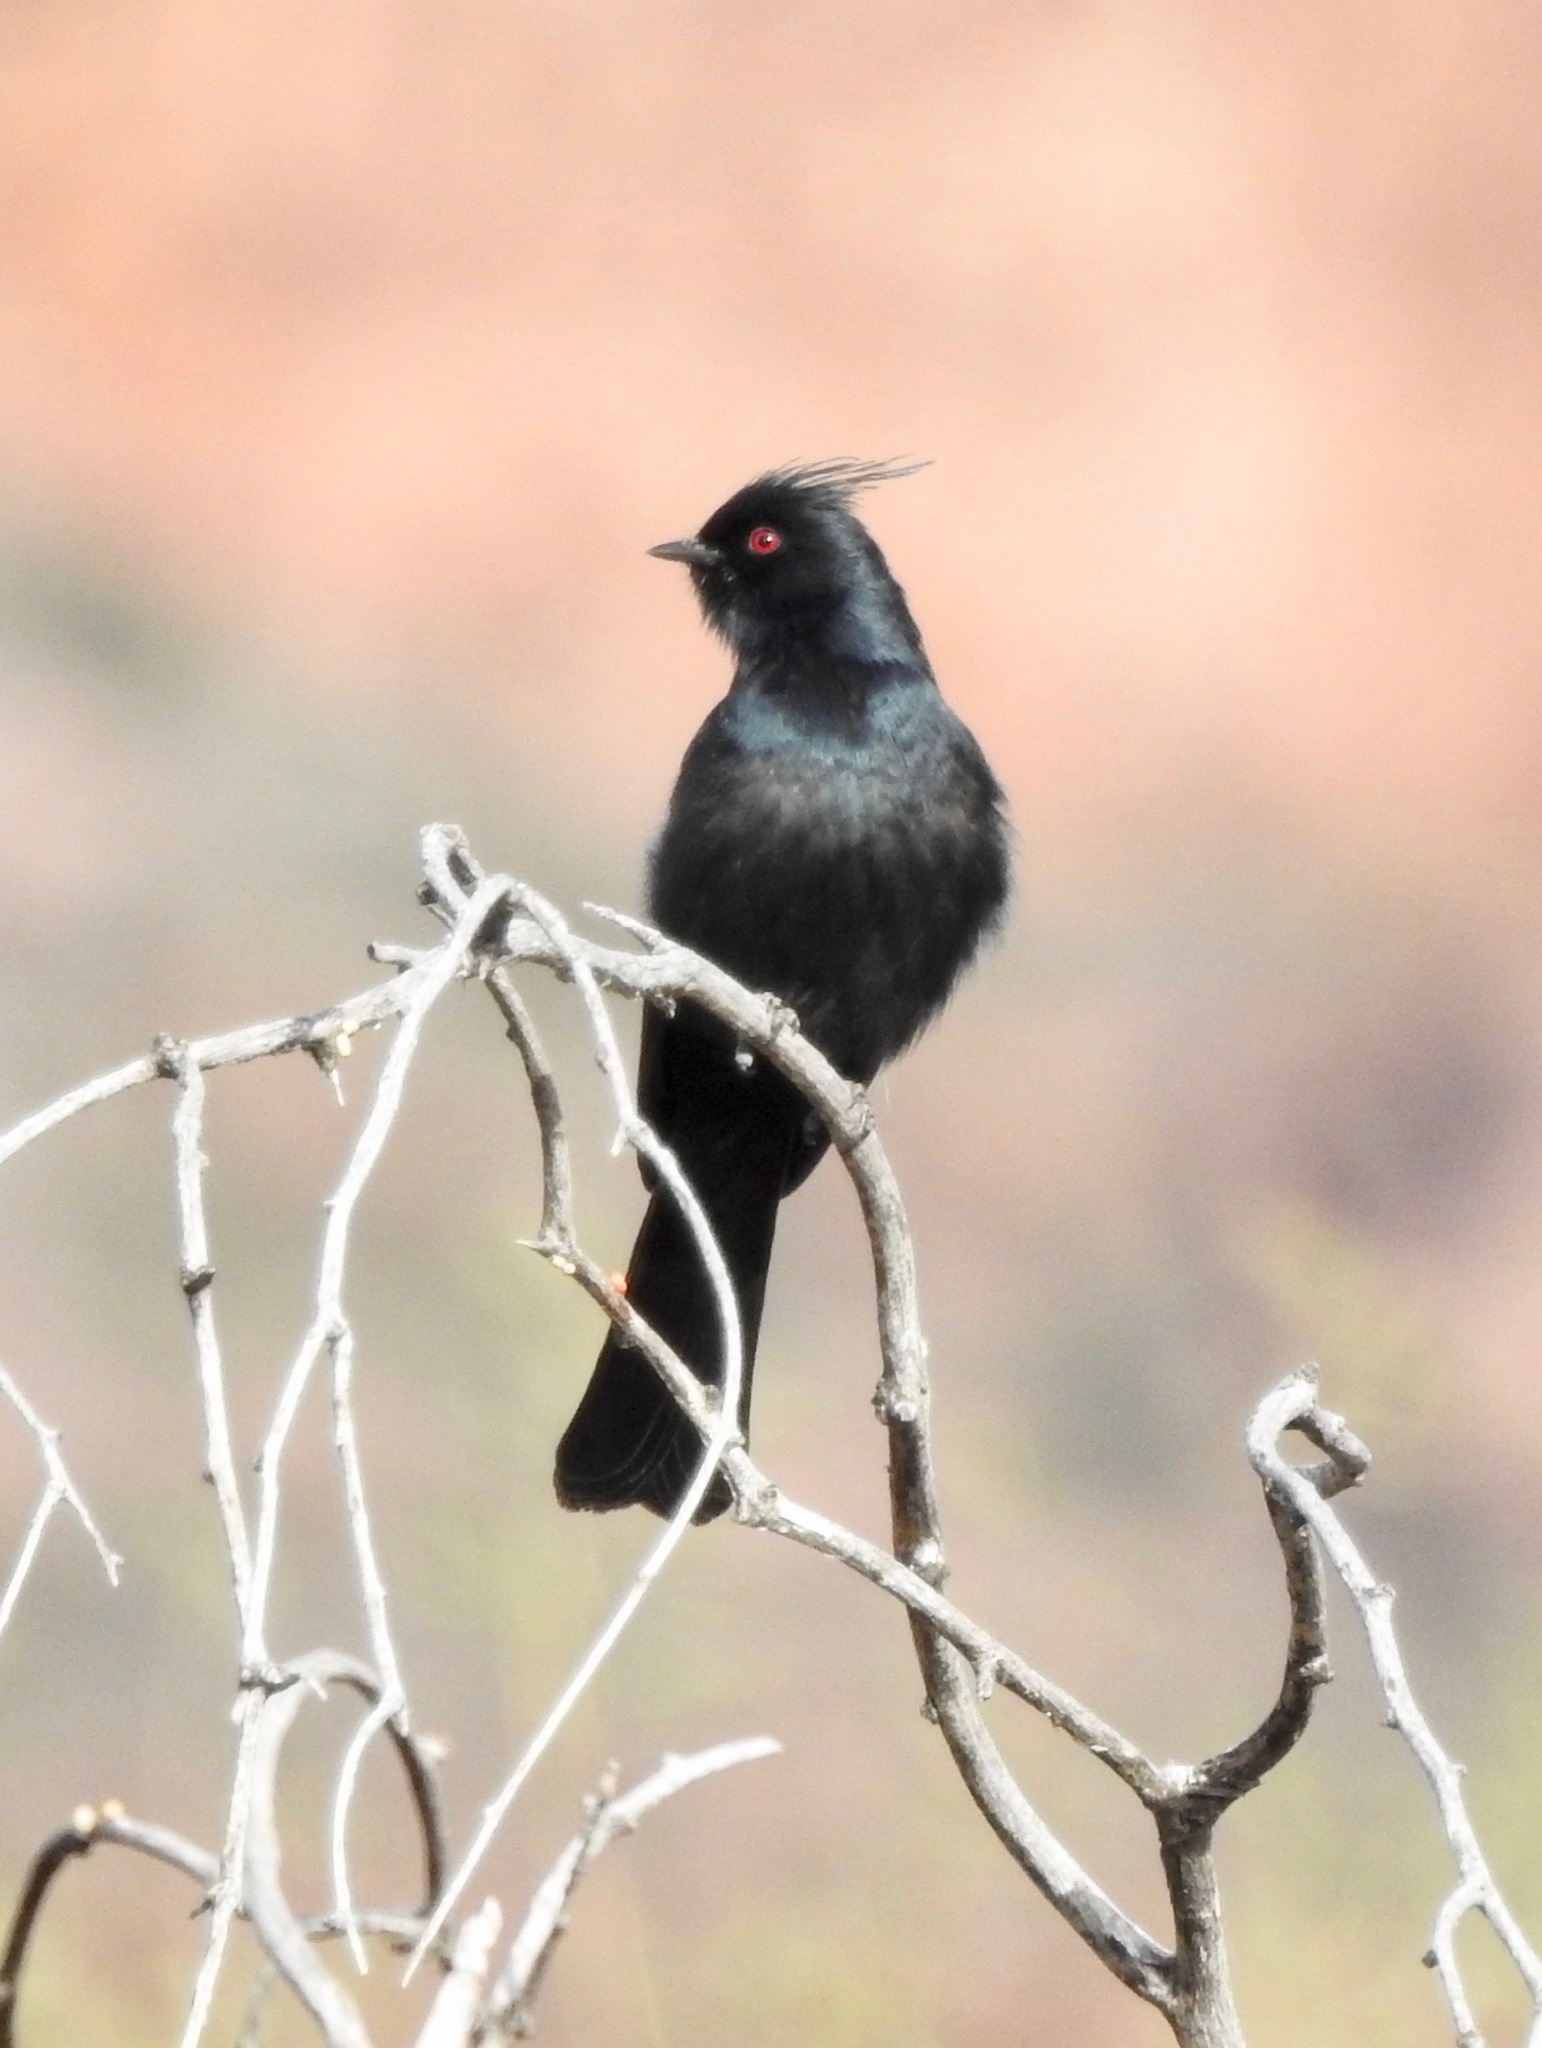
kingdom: Animalia
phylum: Chordata
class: Aves
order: Passeriformes
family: Ptilogonatidae
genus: Phainopepla
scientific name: Phainopepla nitens
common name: Phainopepla
